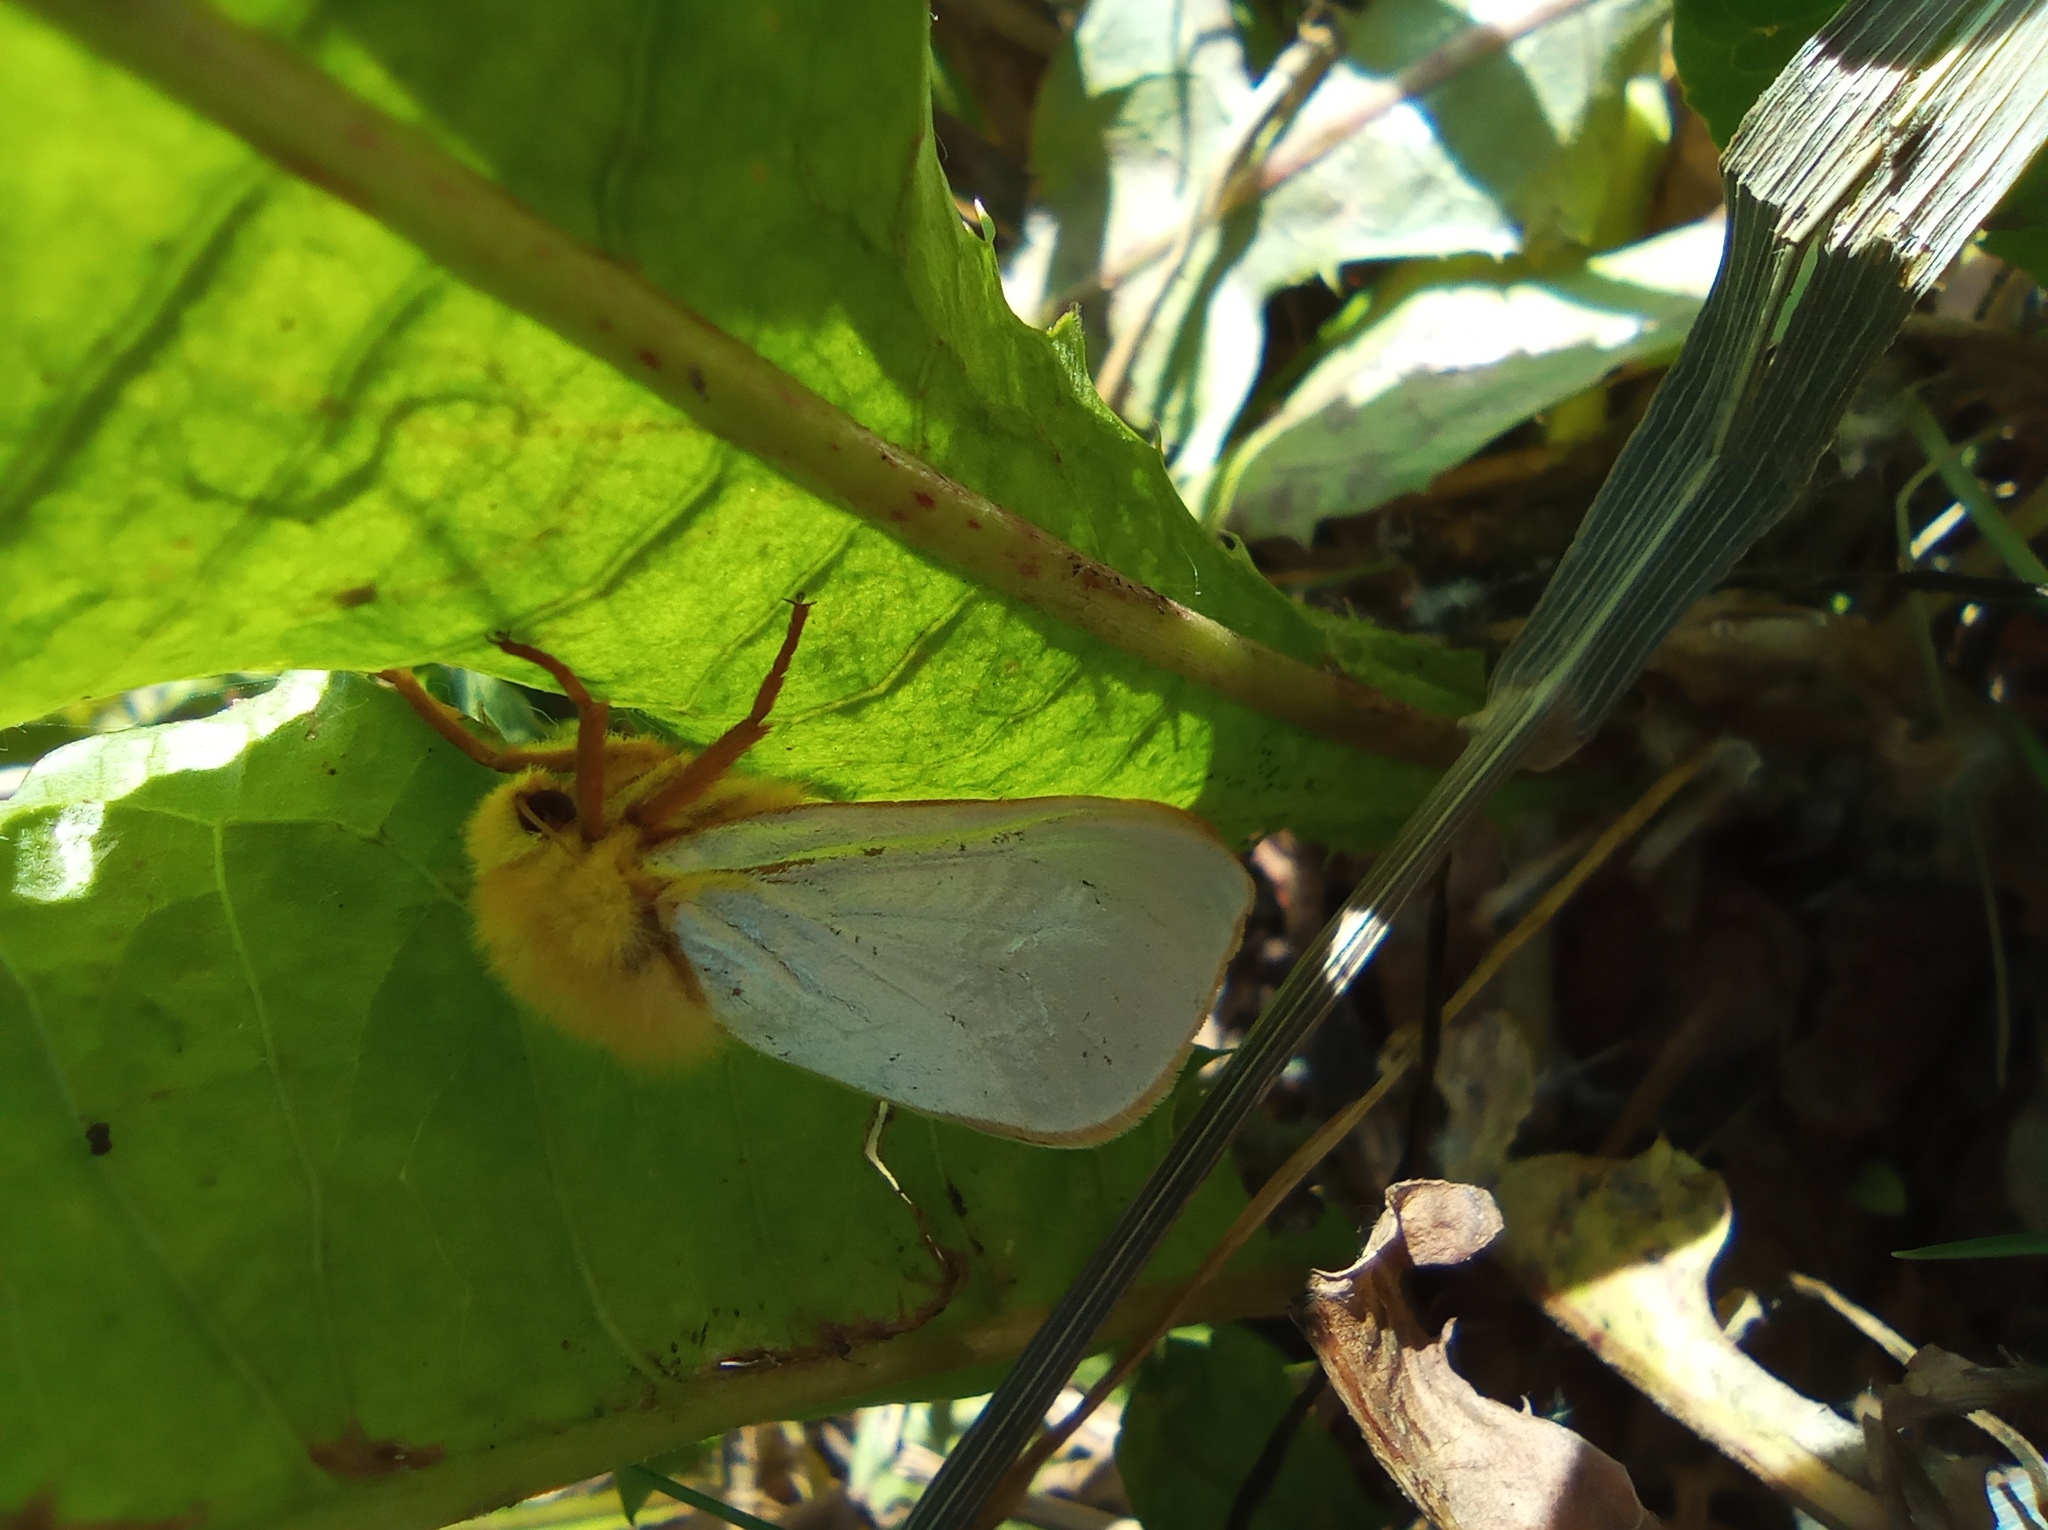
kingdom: Animalia
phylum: Arthropoda
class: Insecta
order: Lepidoptera
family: Hepialidae
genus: Hepialus
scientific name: Hepialus humuli
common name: Ghost moth
